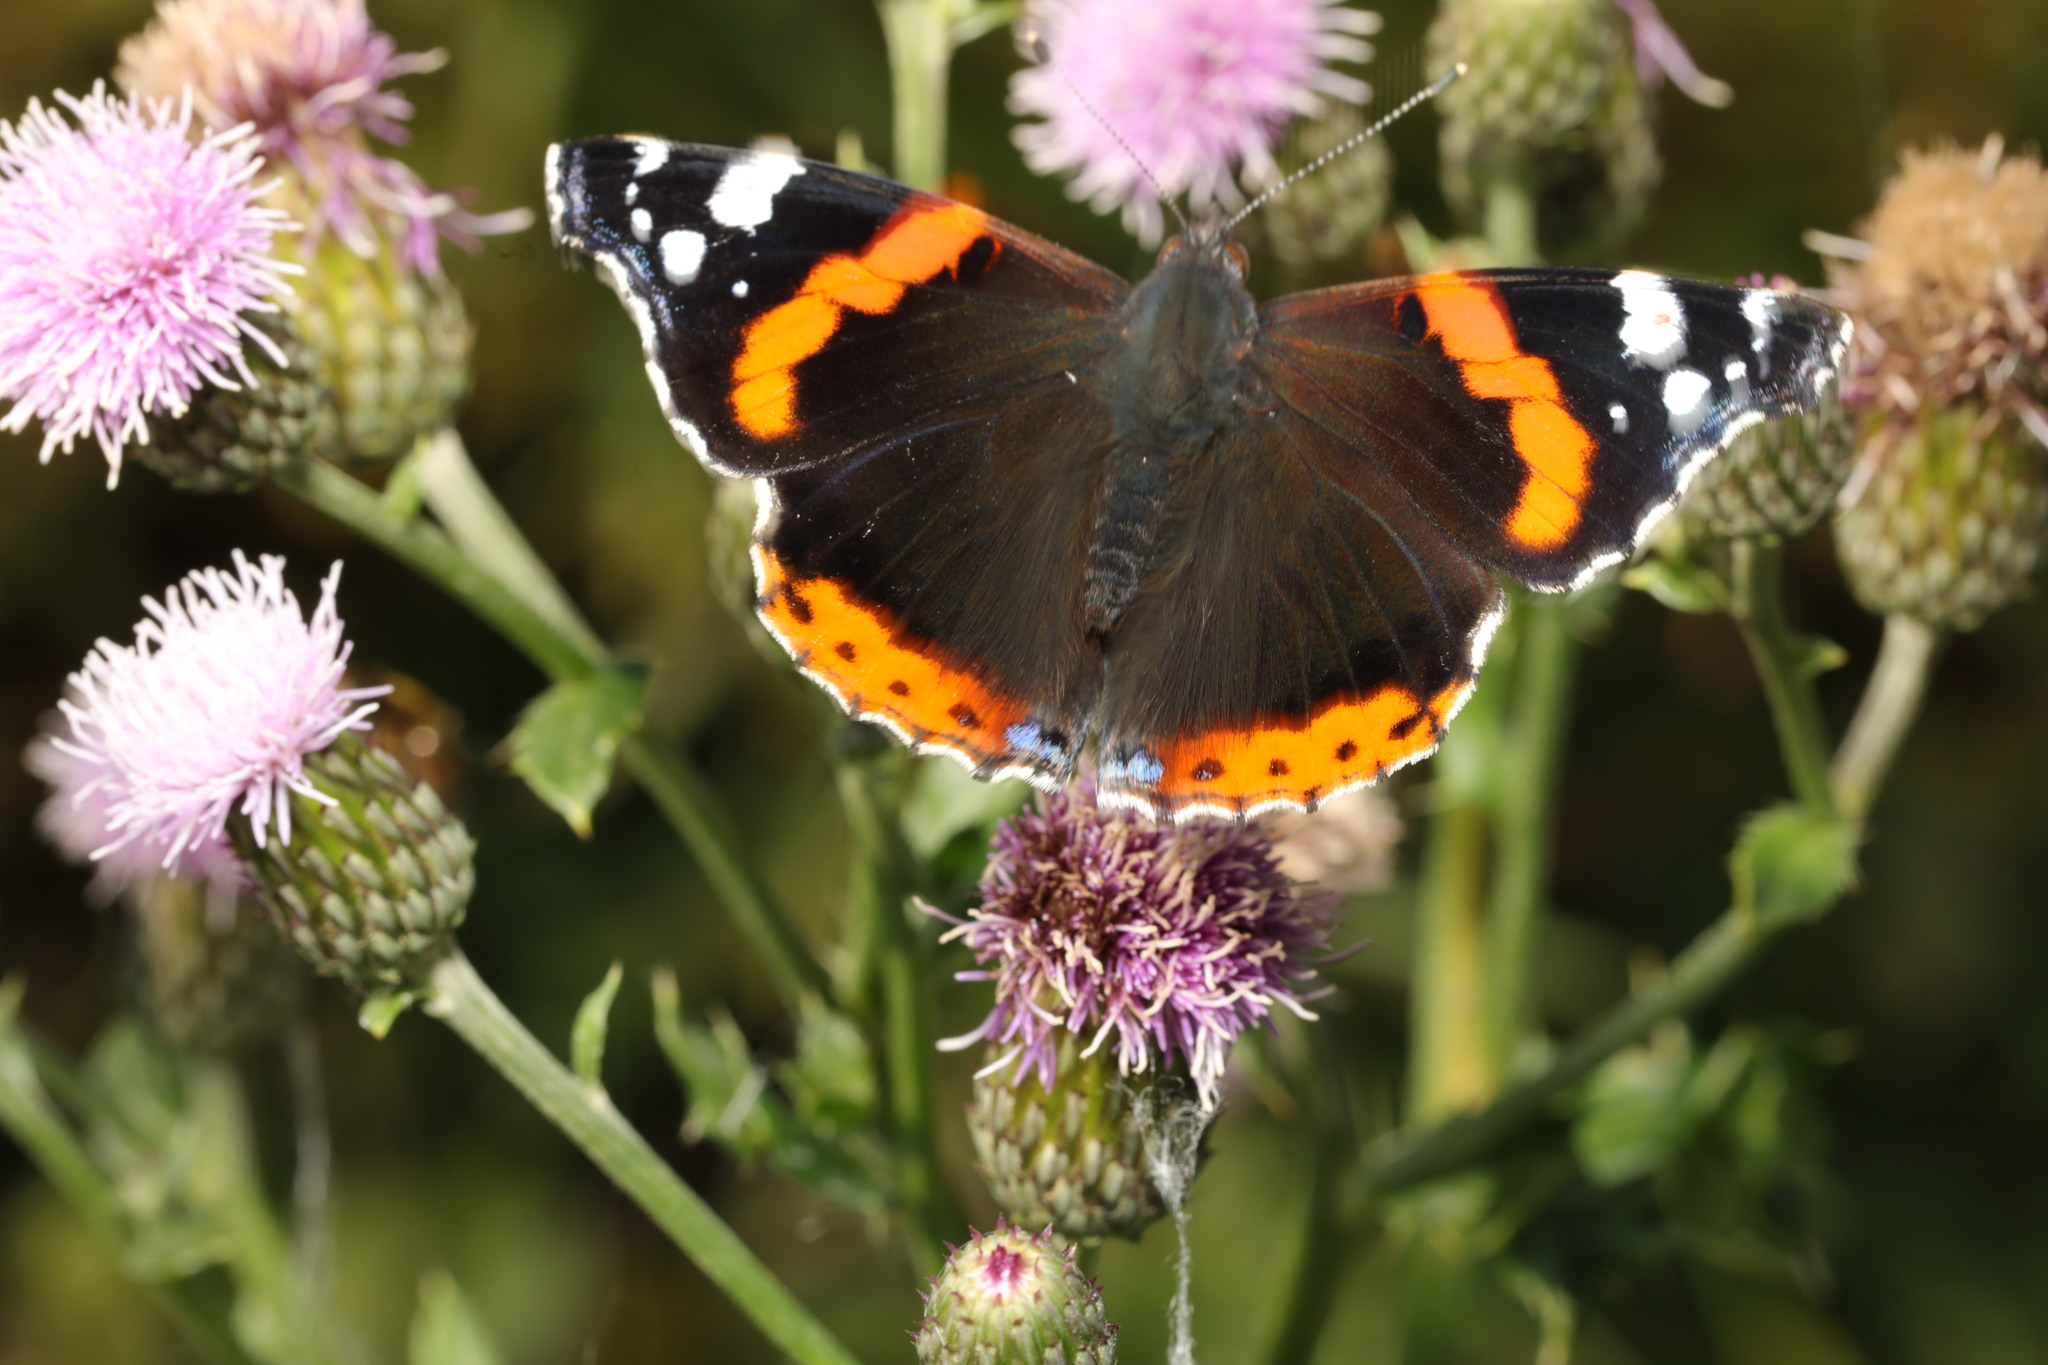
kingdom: Animalia
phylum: Arthropoda
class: Insecta
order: Lepidoptera
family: Nymphalidae
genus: Vanessa
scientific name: Vanessa atalanta
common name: Red admiral
